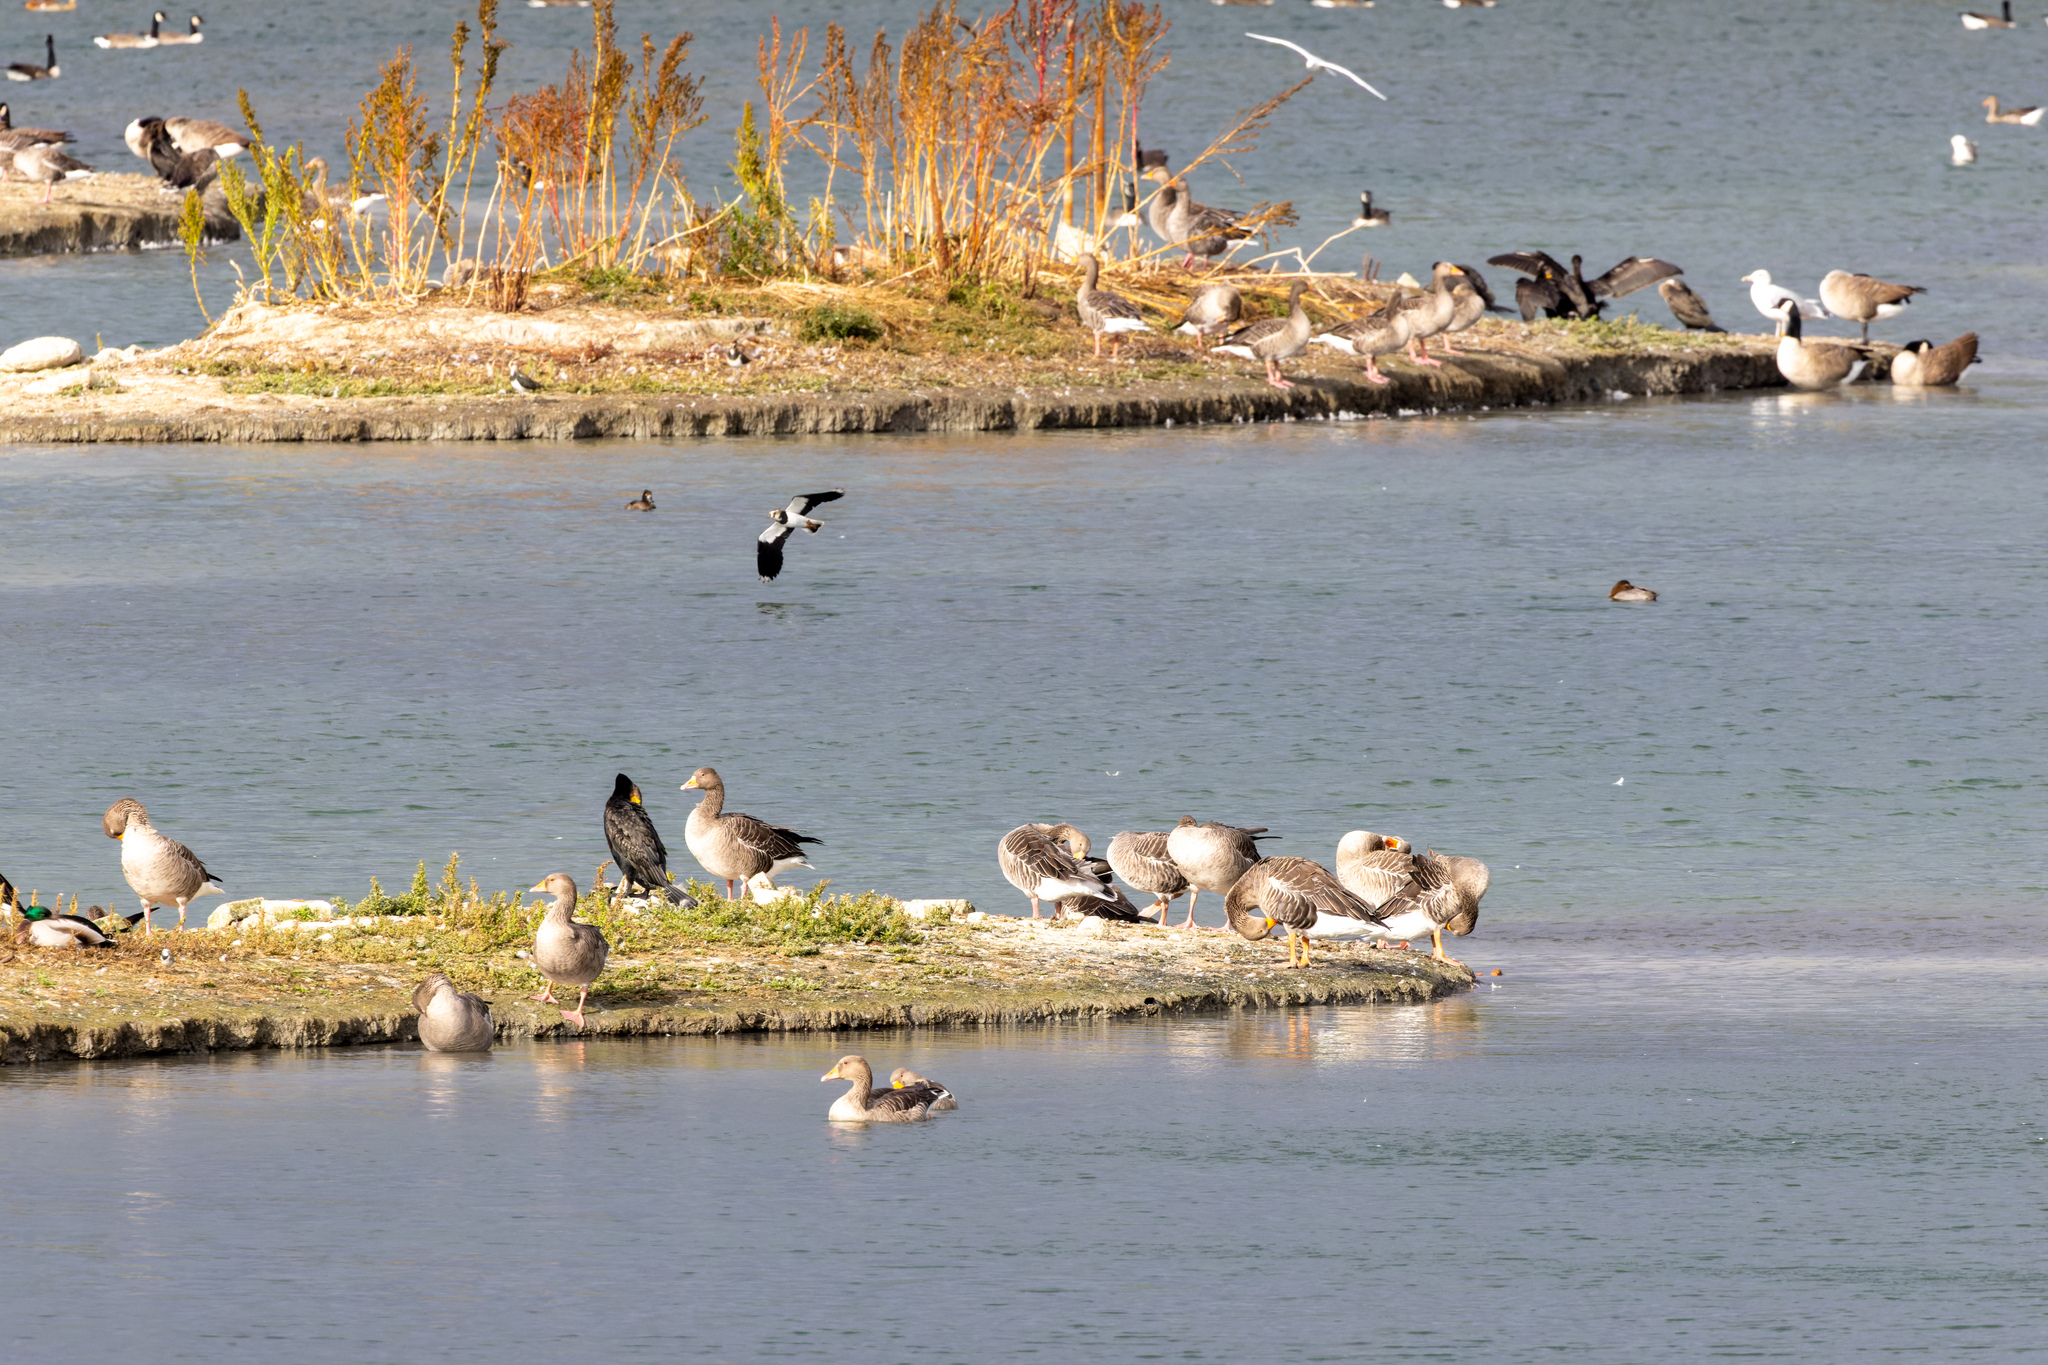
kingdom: Animalia
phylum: Chordata
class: Aves
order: Anseriformes
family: Anatidae
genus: Aythya
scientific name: Aythya ferina
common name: Common pochard
